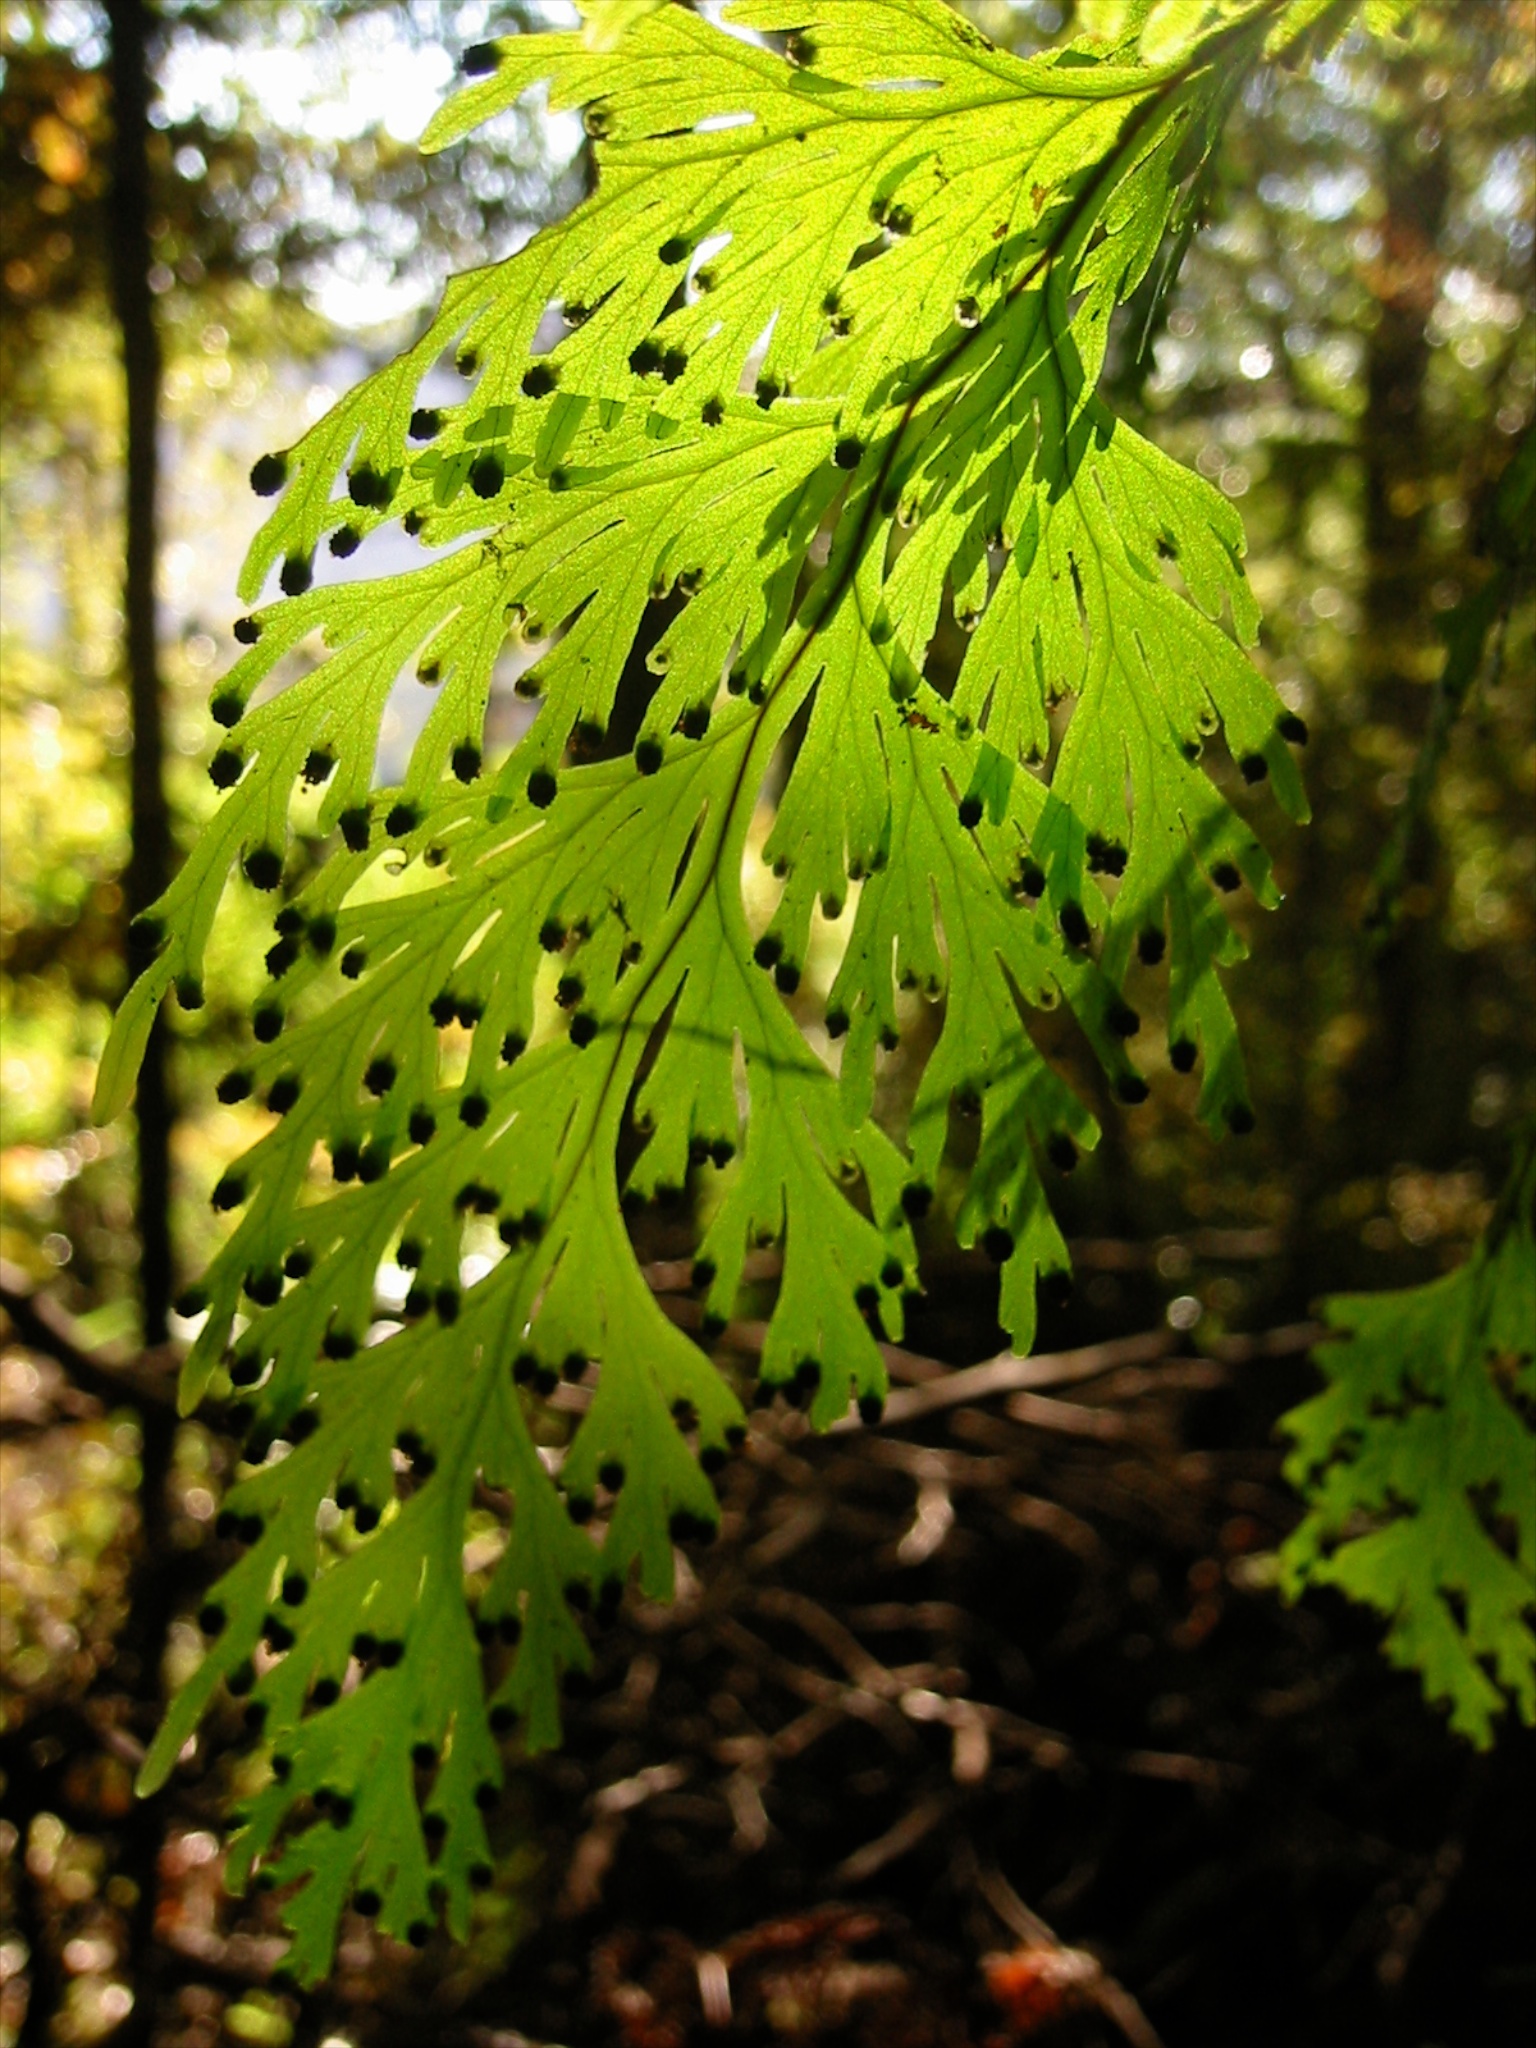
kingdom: Plantae
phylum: Tracheophyta
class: Polypodiopsida
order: Hymenophyllales
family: Hymenophyllaceae
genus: Hymenophyllum
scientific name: Hymenophyllum dilatatum
